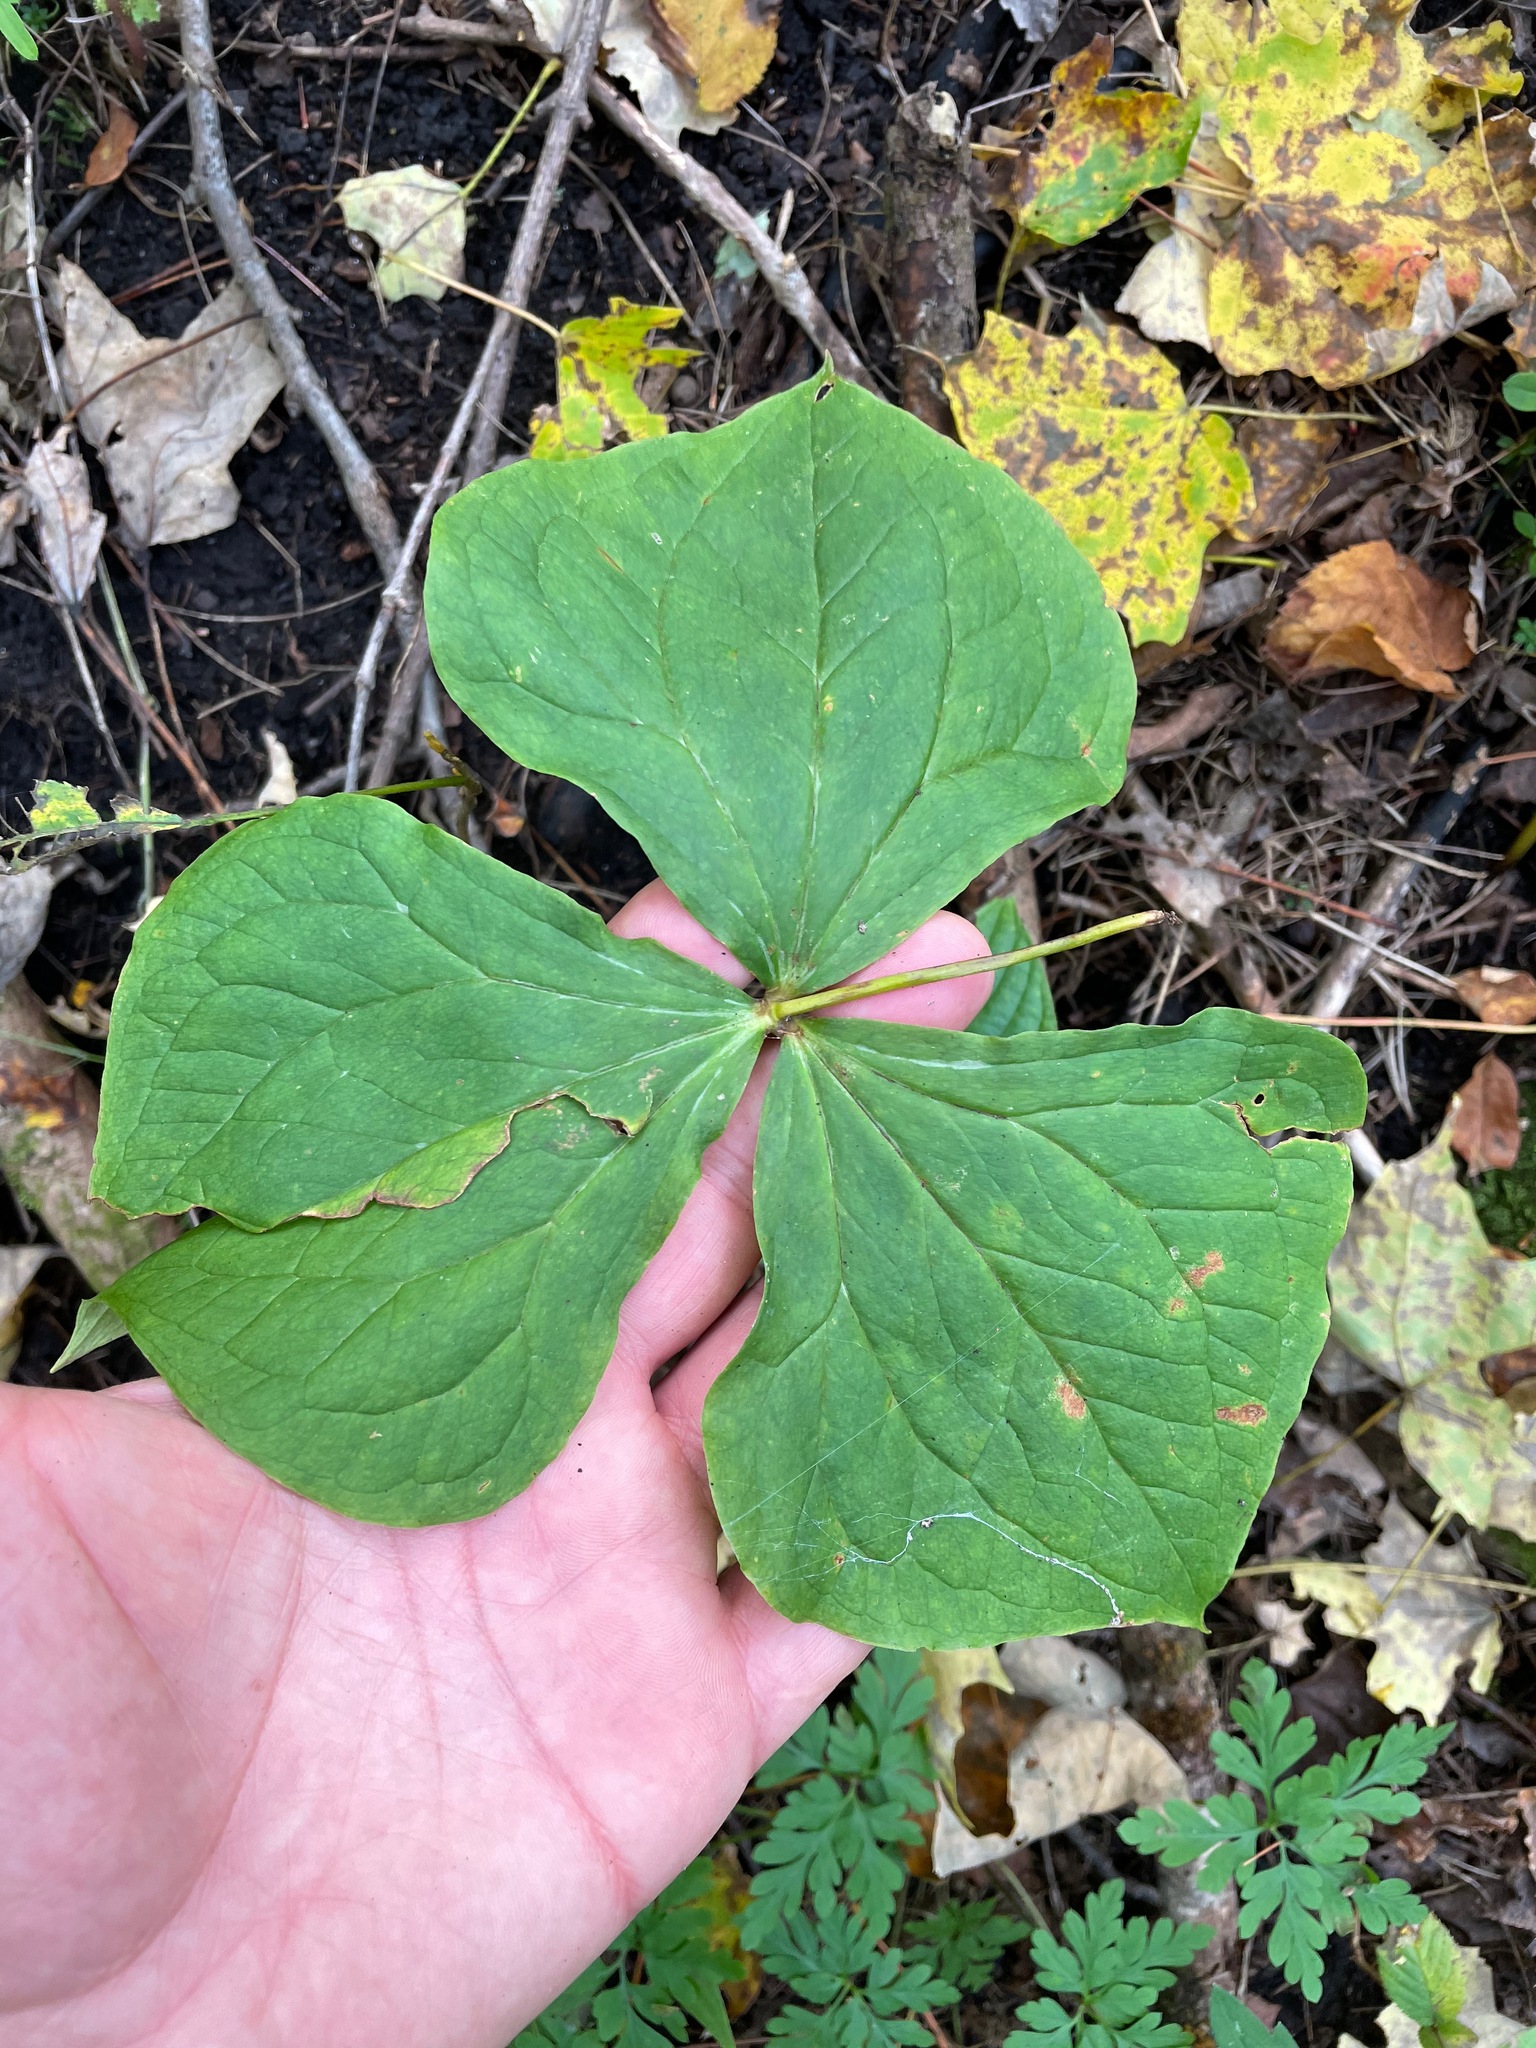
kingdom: Plantae
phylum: Tracheophyta
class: Liliopsida
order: Liliales
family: Melanthiaceae
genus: Trillium
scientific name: Trillium erectum
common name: Purple trillium
